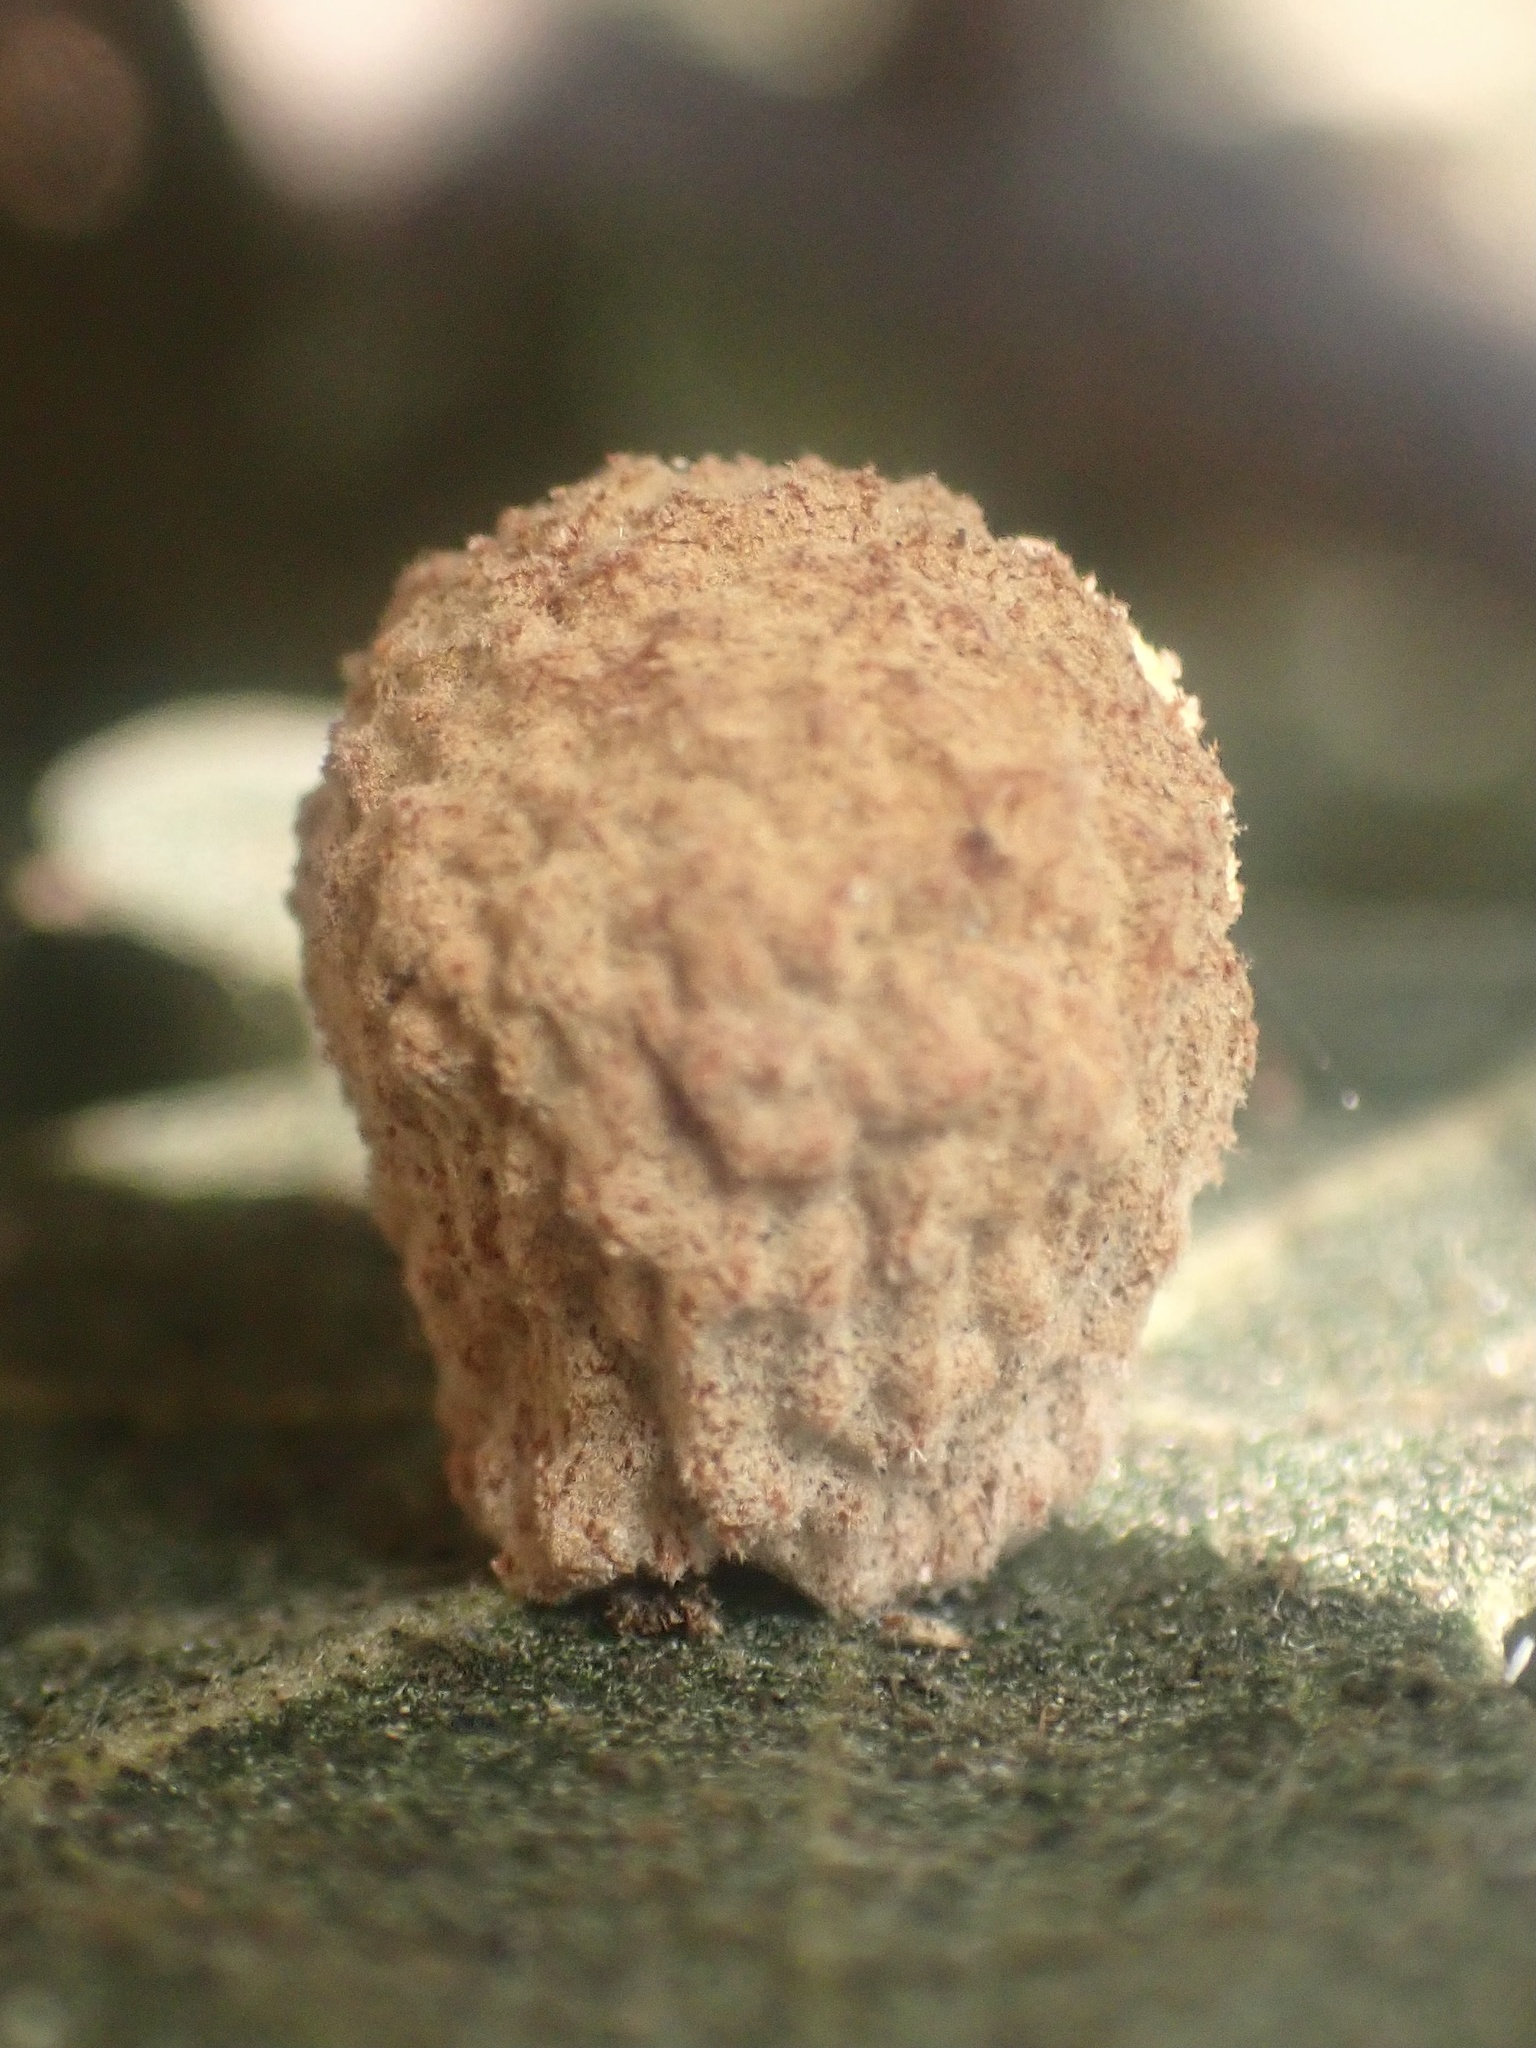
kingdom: Animalia
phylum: Arthropoda
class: Insecta
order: Hymenoptera
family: Cynipidae
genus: Cynips
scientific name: Cynips conspicua
